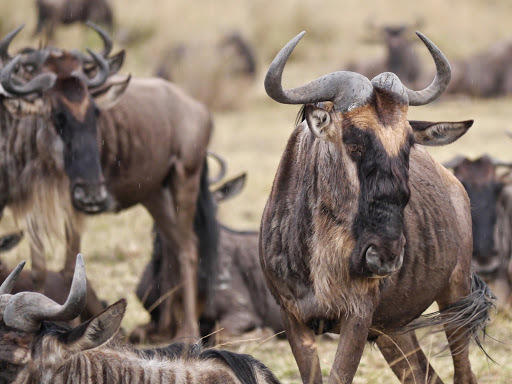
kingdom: Animalia
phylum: Chordata
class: Mammalia
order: Artiodactyla
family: Bovidae
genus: Connochaetes
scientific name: Connochaetes taurinus
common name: Blue wildebeest
